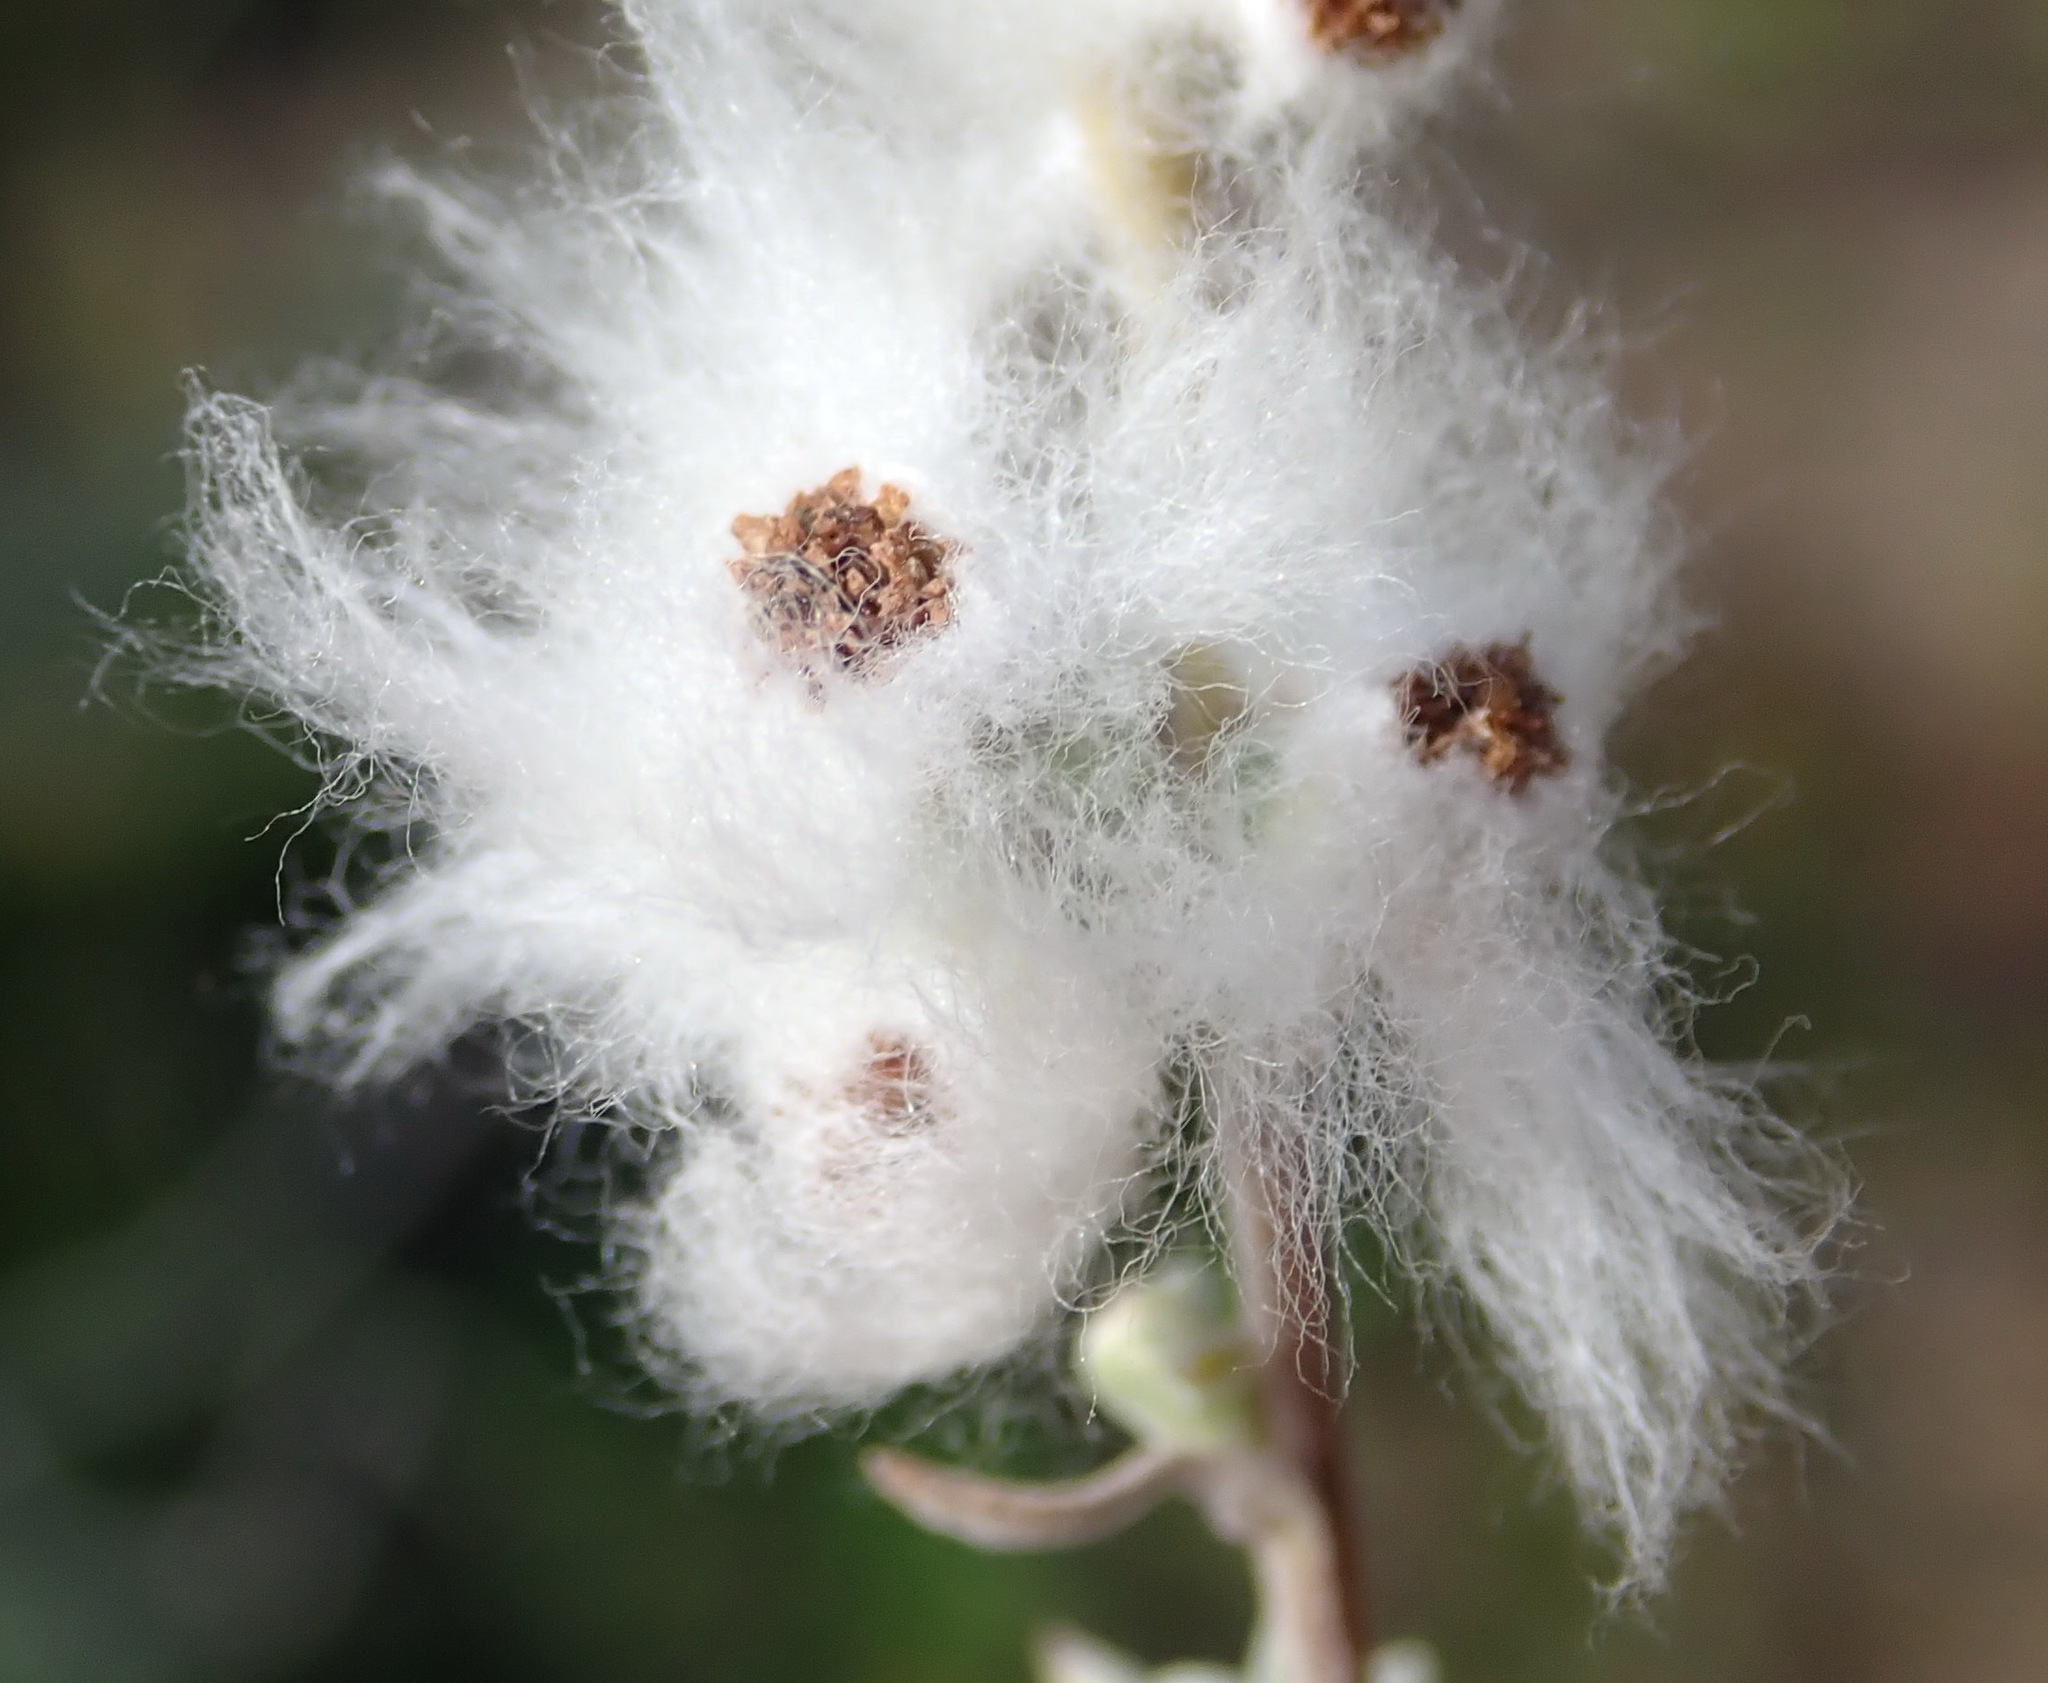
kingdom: Plantae
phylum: Tracheophyta
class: Magnoliopsida
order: Asterales
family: Asteraceae
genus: Eriocephalus
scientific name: Eriocephalus racemosus
